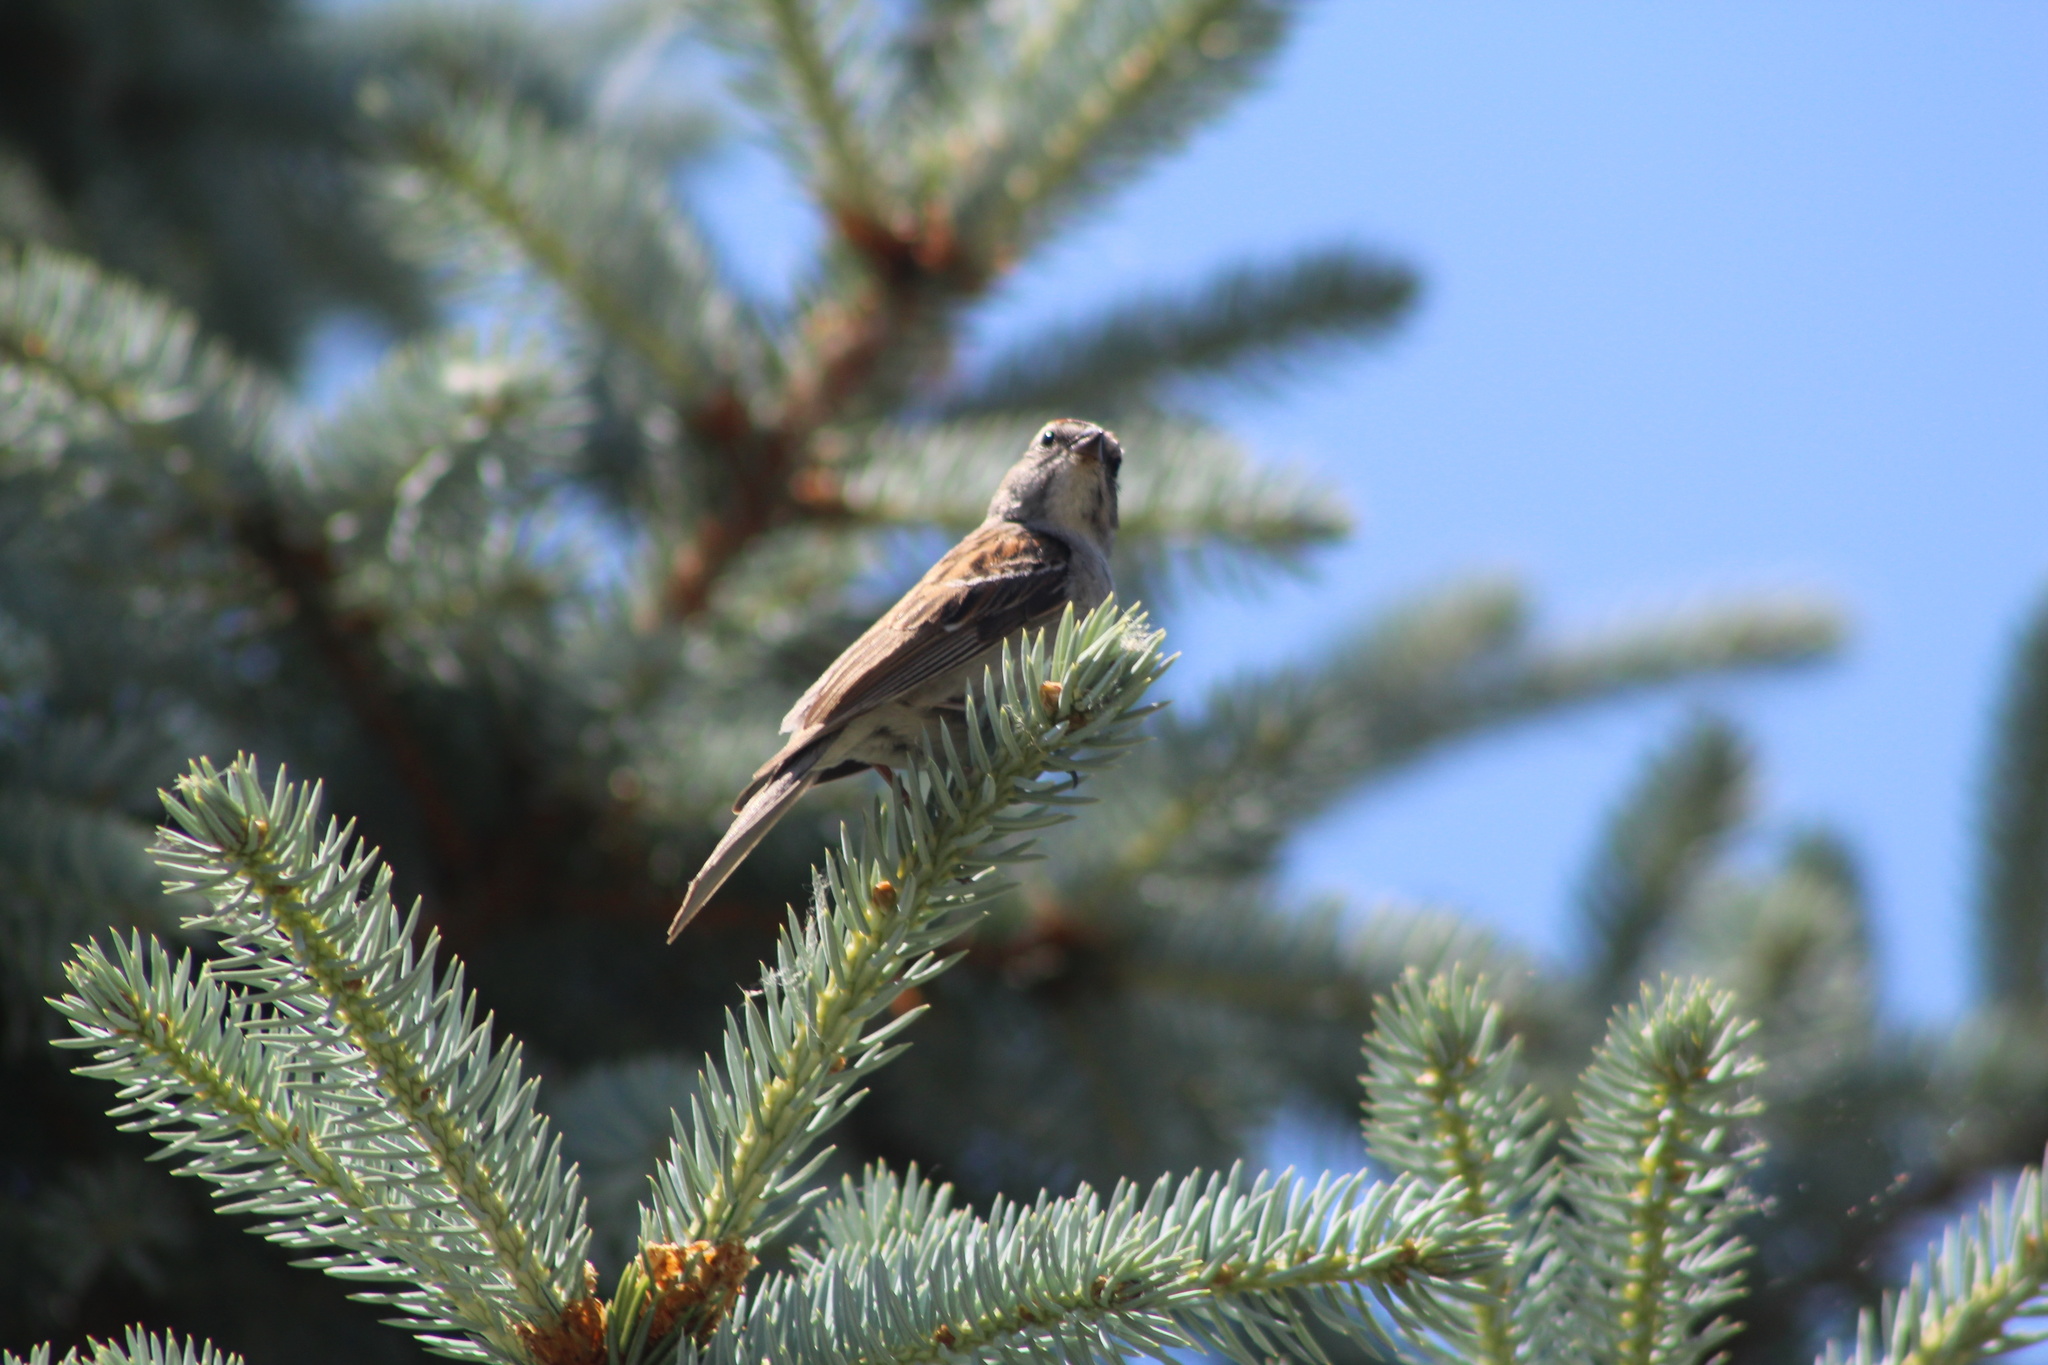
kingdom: Animalia
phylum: Chordata
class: Aves
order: Passeriformes
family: Passerellidae
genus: Spizella
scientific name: Spizella passerina
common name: Chipping sparrow
